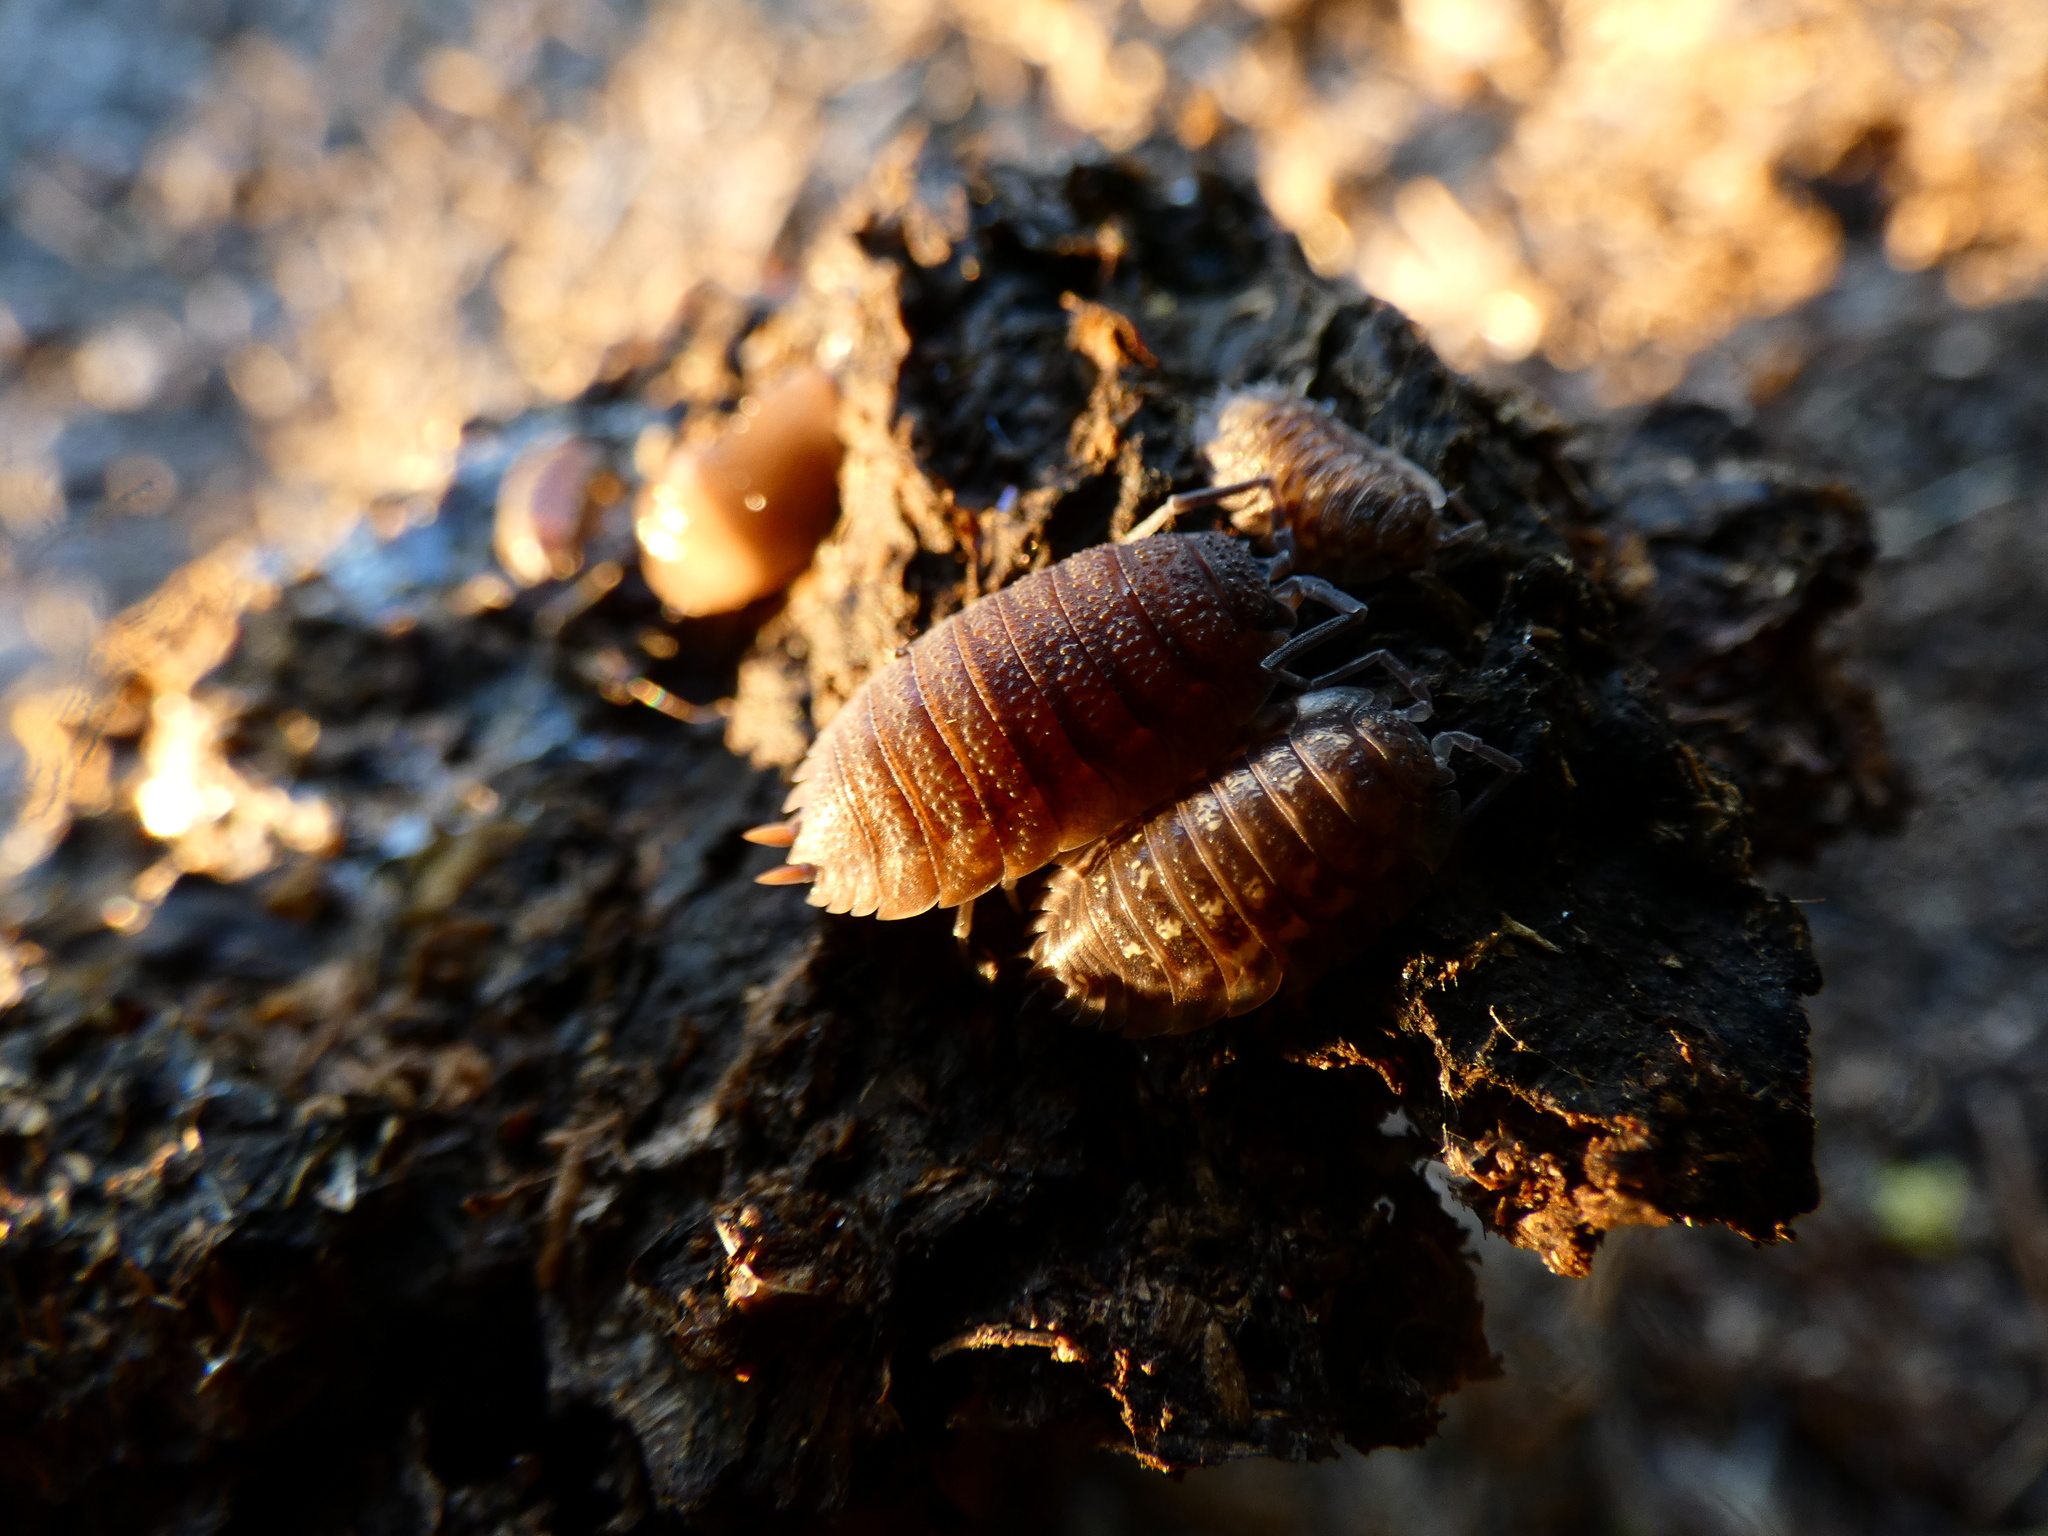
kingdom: Animalia
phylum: Arthropoda
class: Malacostraca
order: Isopoda
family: Porcellionidae
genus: Porcellio
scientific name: Porcellio scaber
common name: Common rough woodlouse
